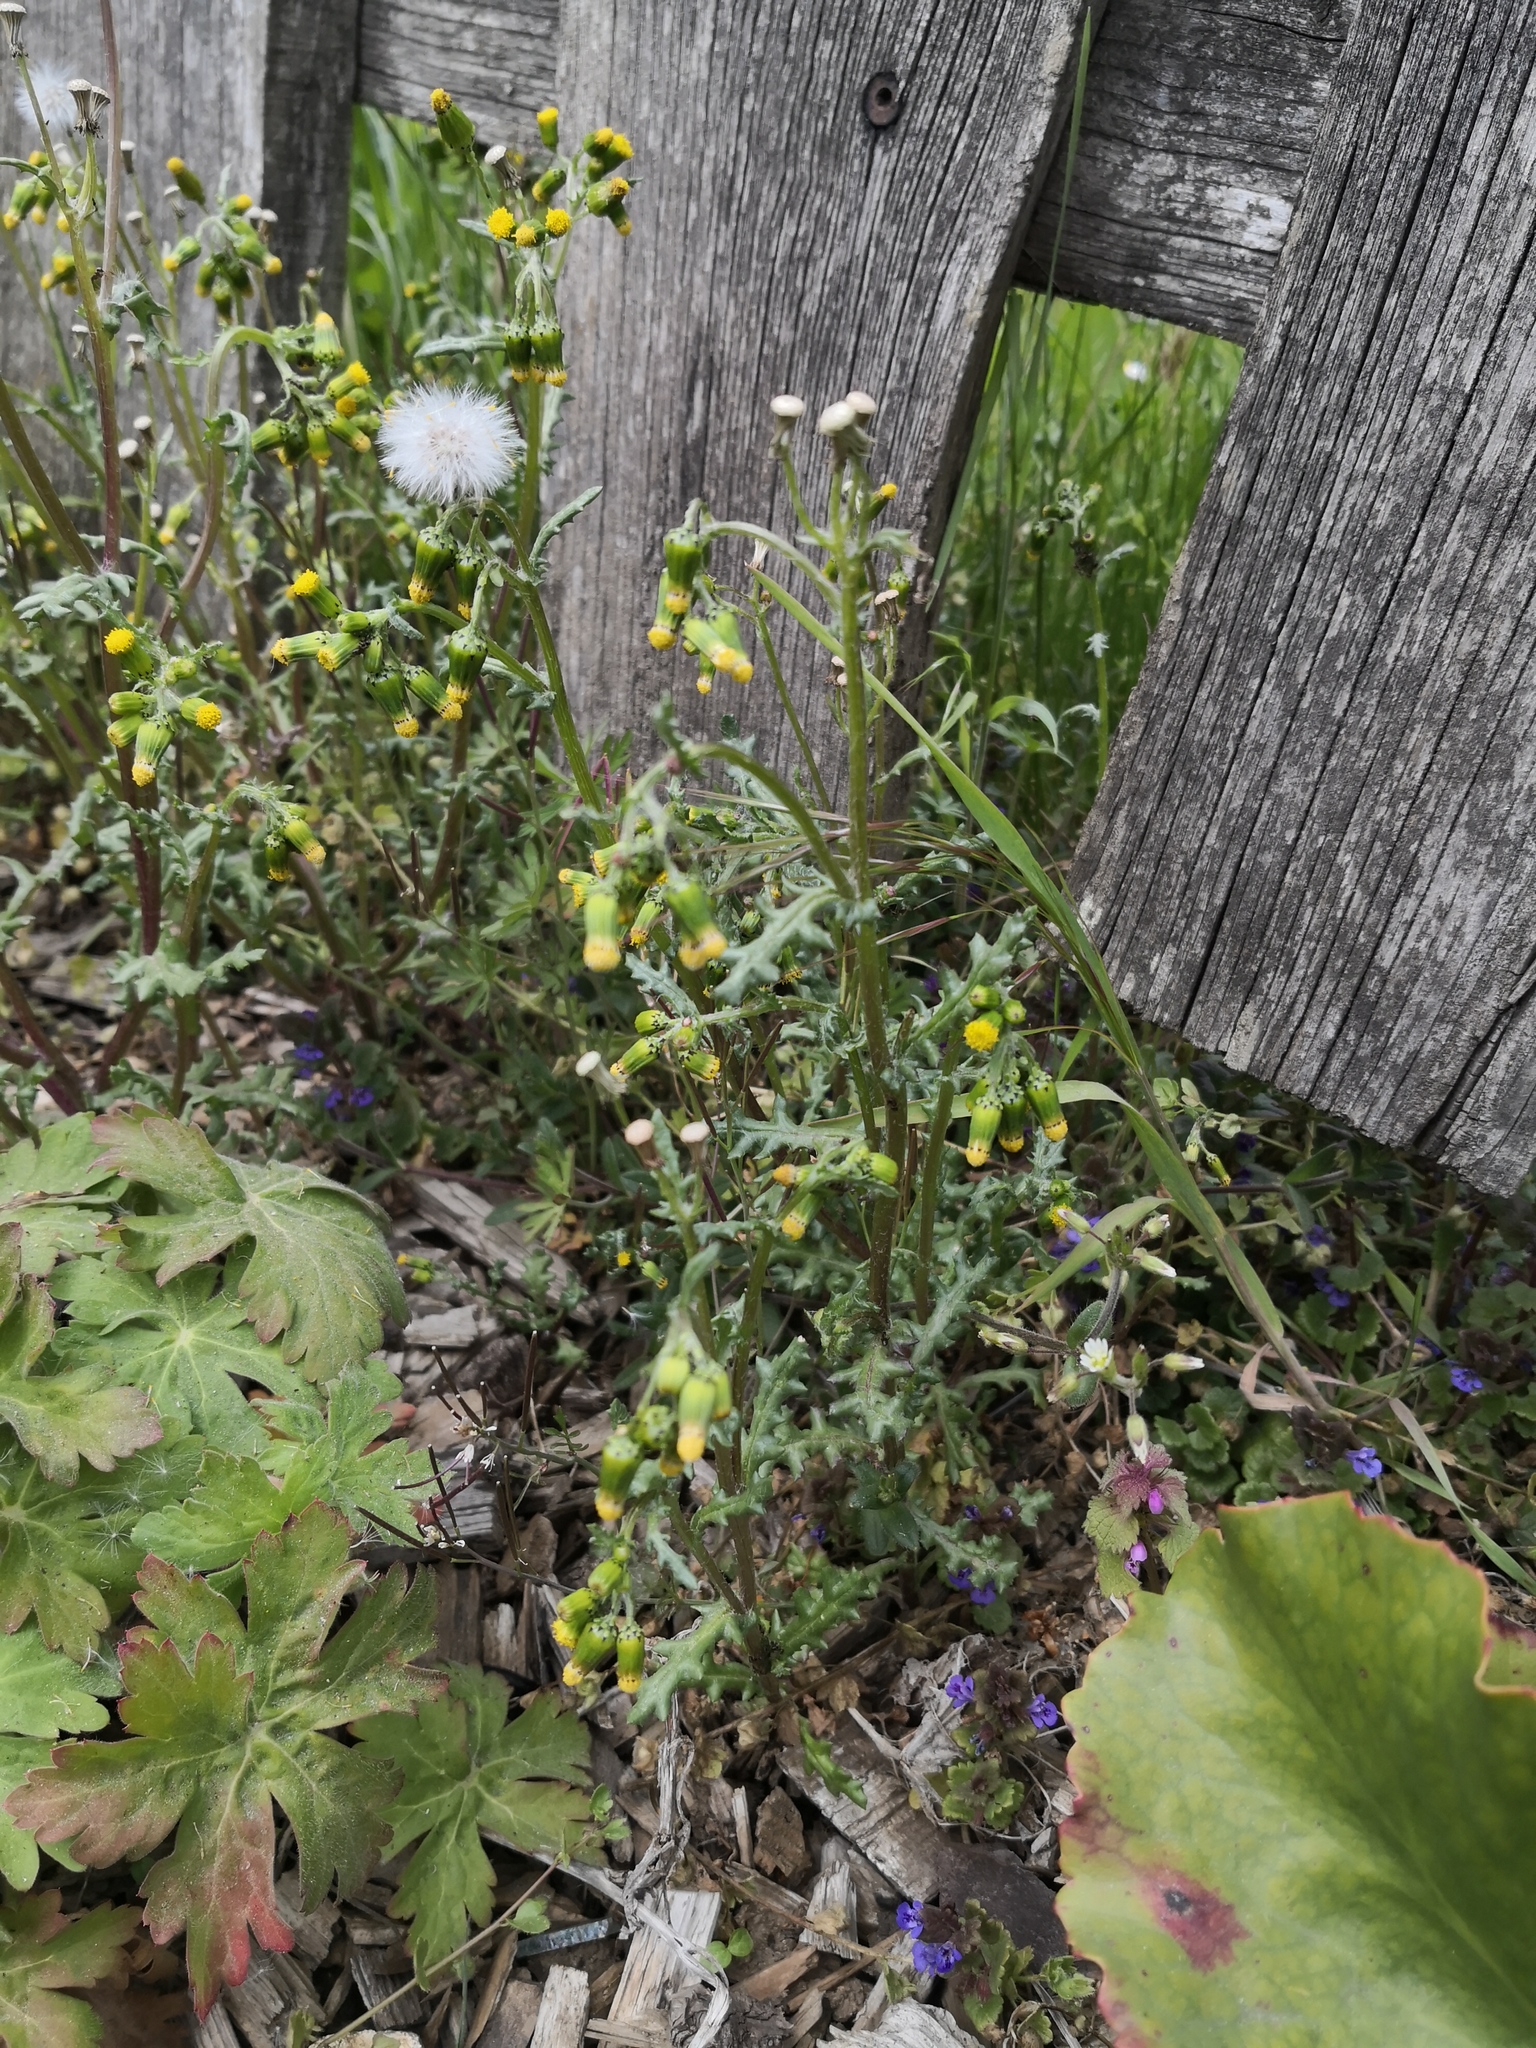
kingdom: Plantae
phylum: Tracheophyta
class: Magnoliopsida
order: Asterales
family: Asteraceae
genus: Senecio
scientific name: Senecio vulgaris
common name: Old-man-in-the-spring
